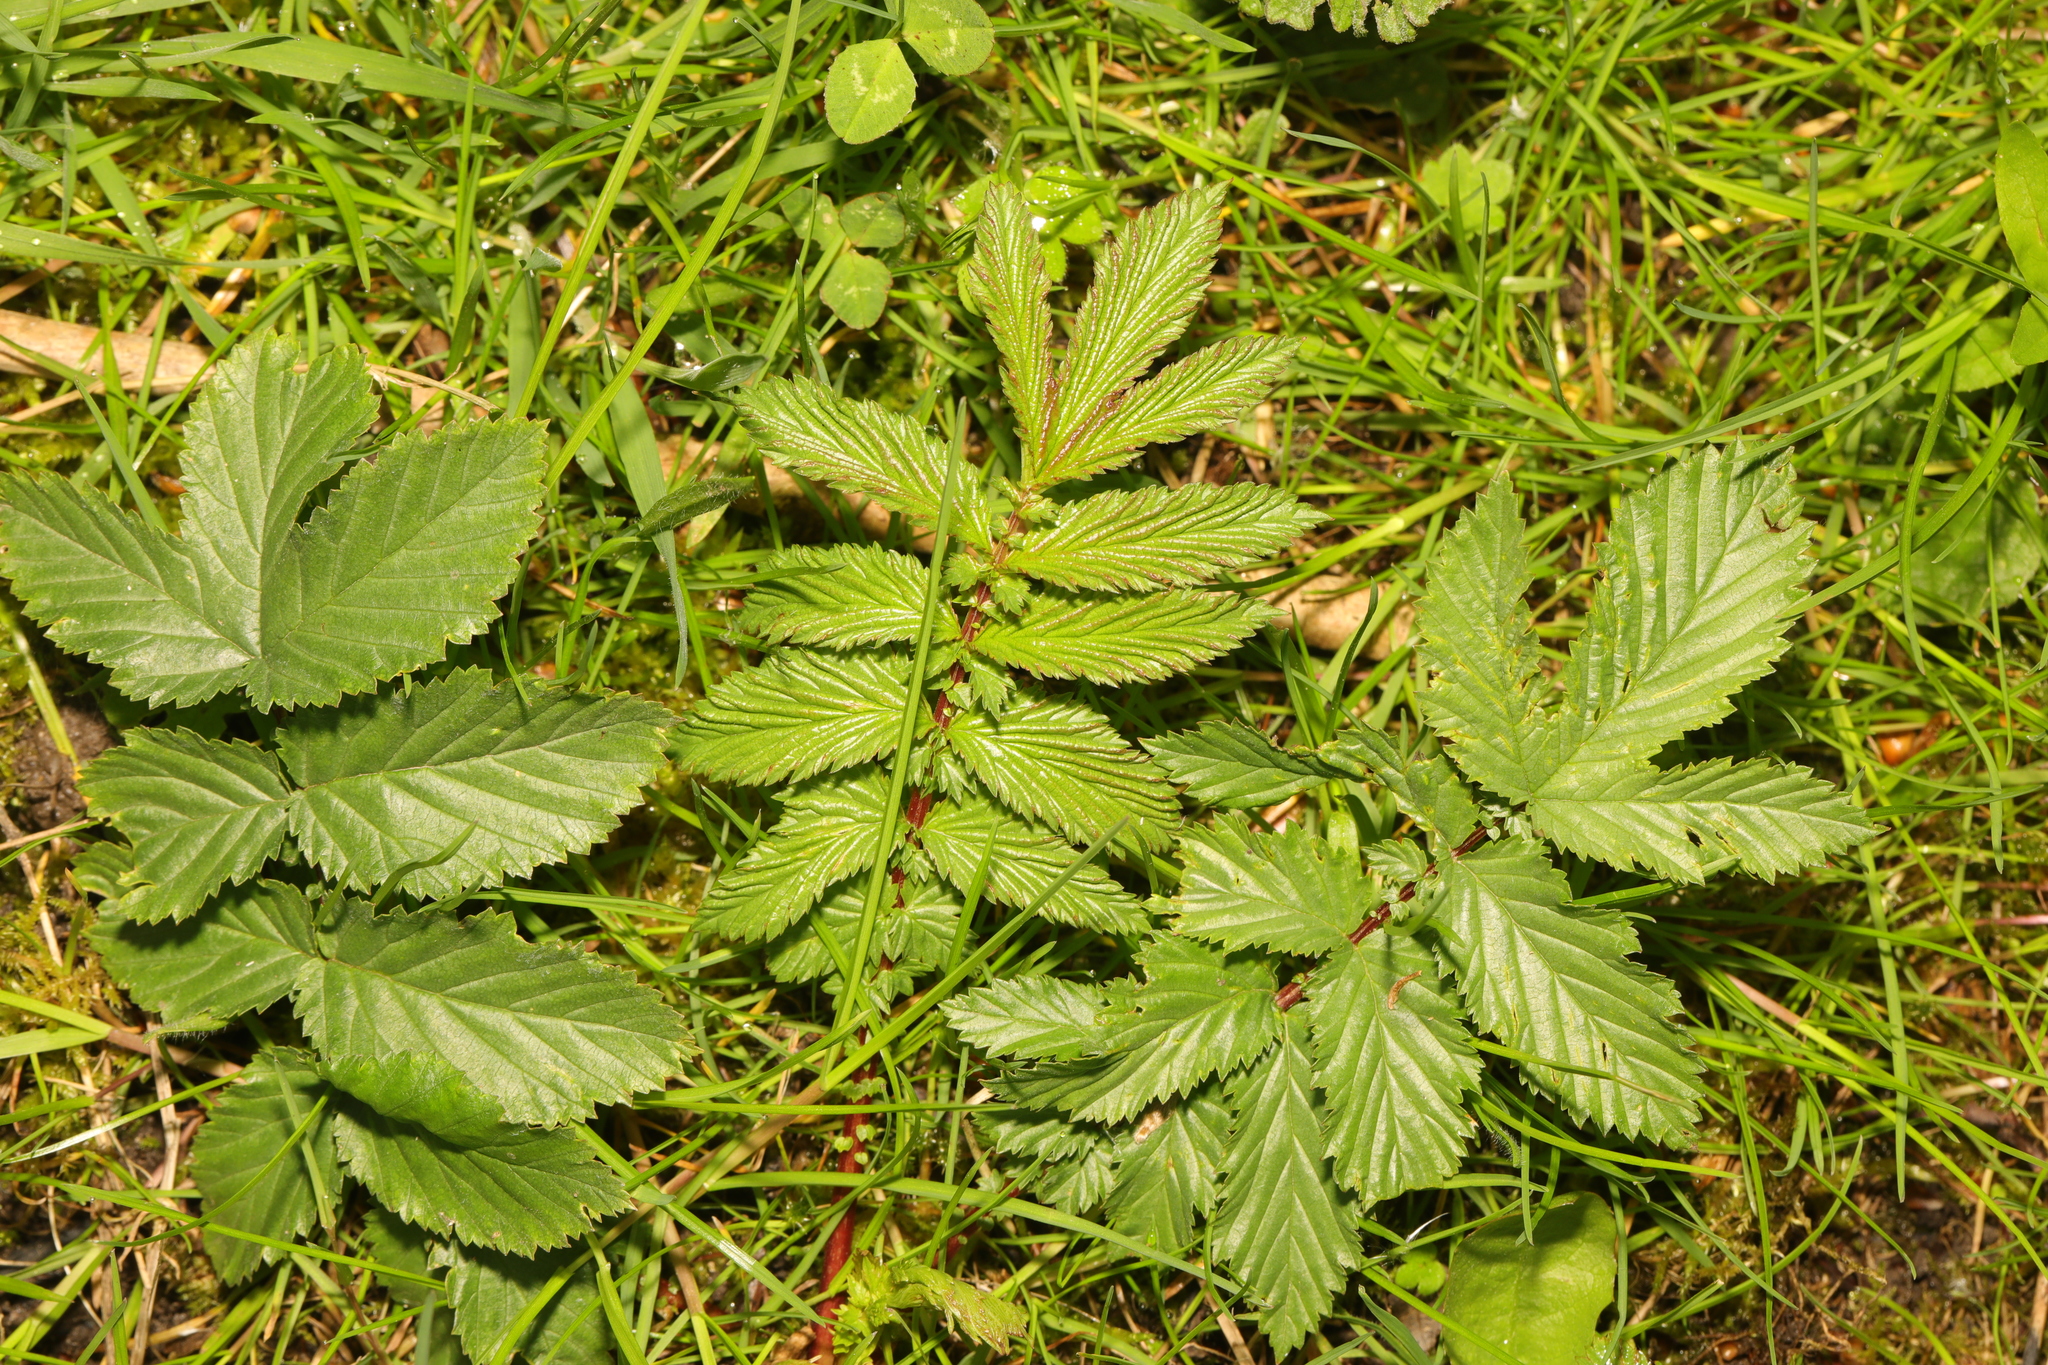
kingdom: Plantae
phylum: Tracheophyta
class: Magnoliopsida
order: Rosales
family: Rosaceae
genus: Filipendula
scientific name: Filipendula ulmaria
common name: Meadowsweet
